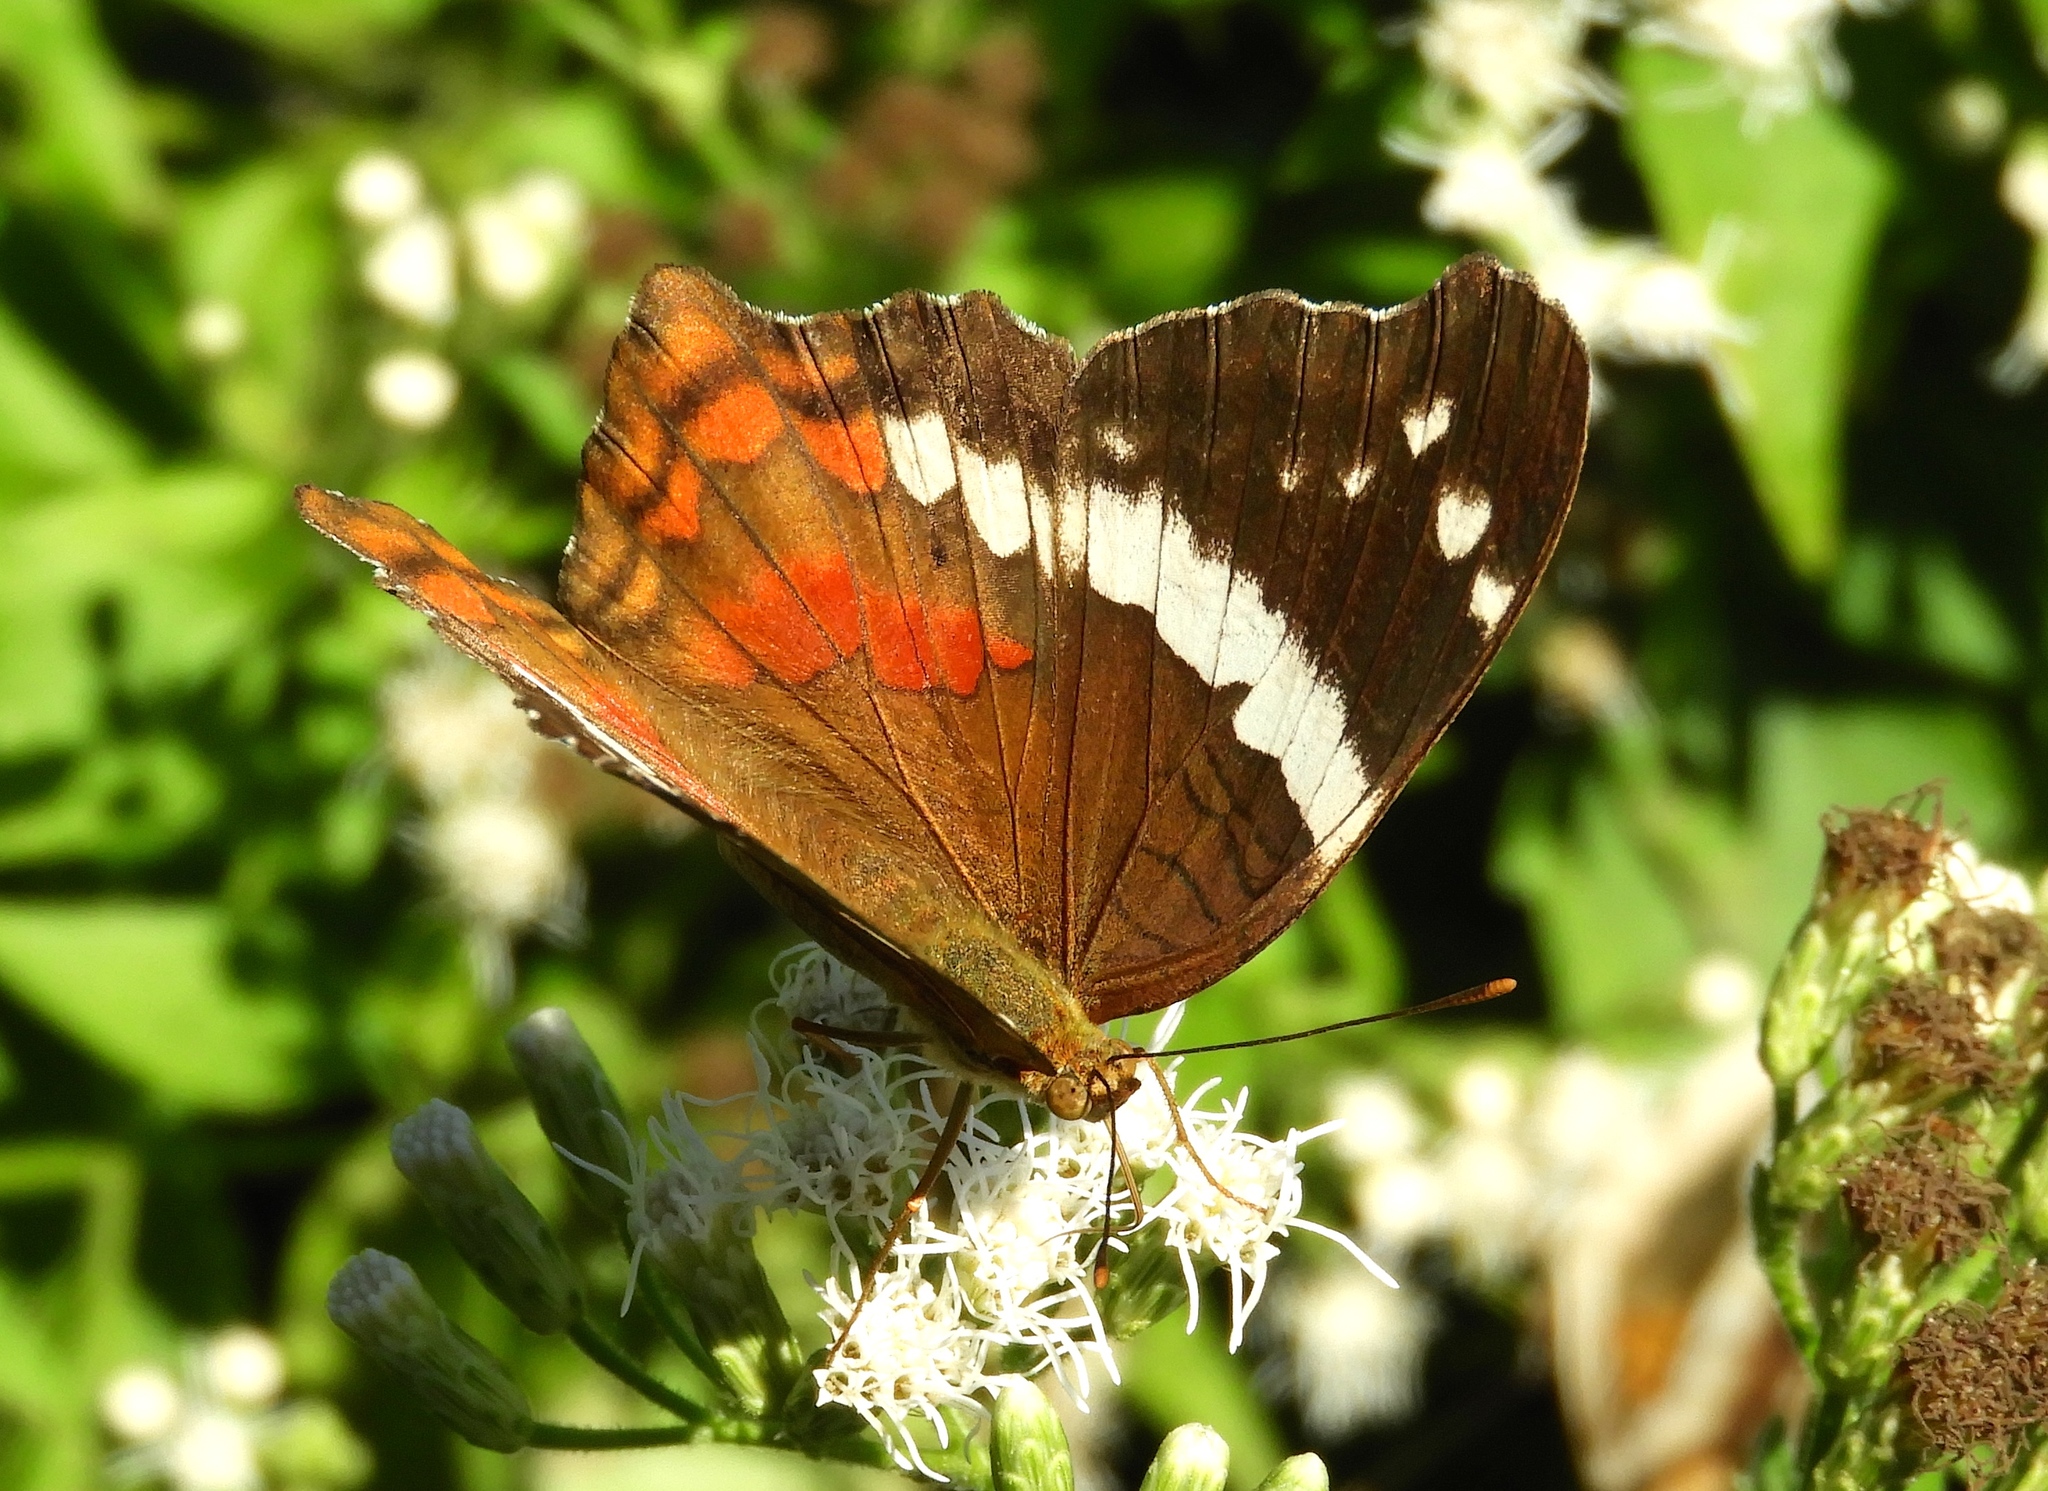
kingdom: Animalia
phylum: Arthropoda
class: Insecta
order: Lepidoptera
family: Nymphalidae
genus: Anartia
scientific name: Anartia fatima
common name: Banded peacock
